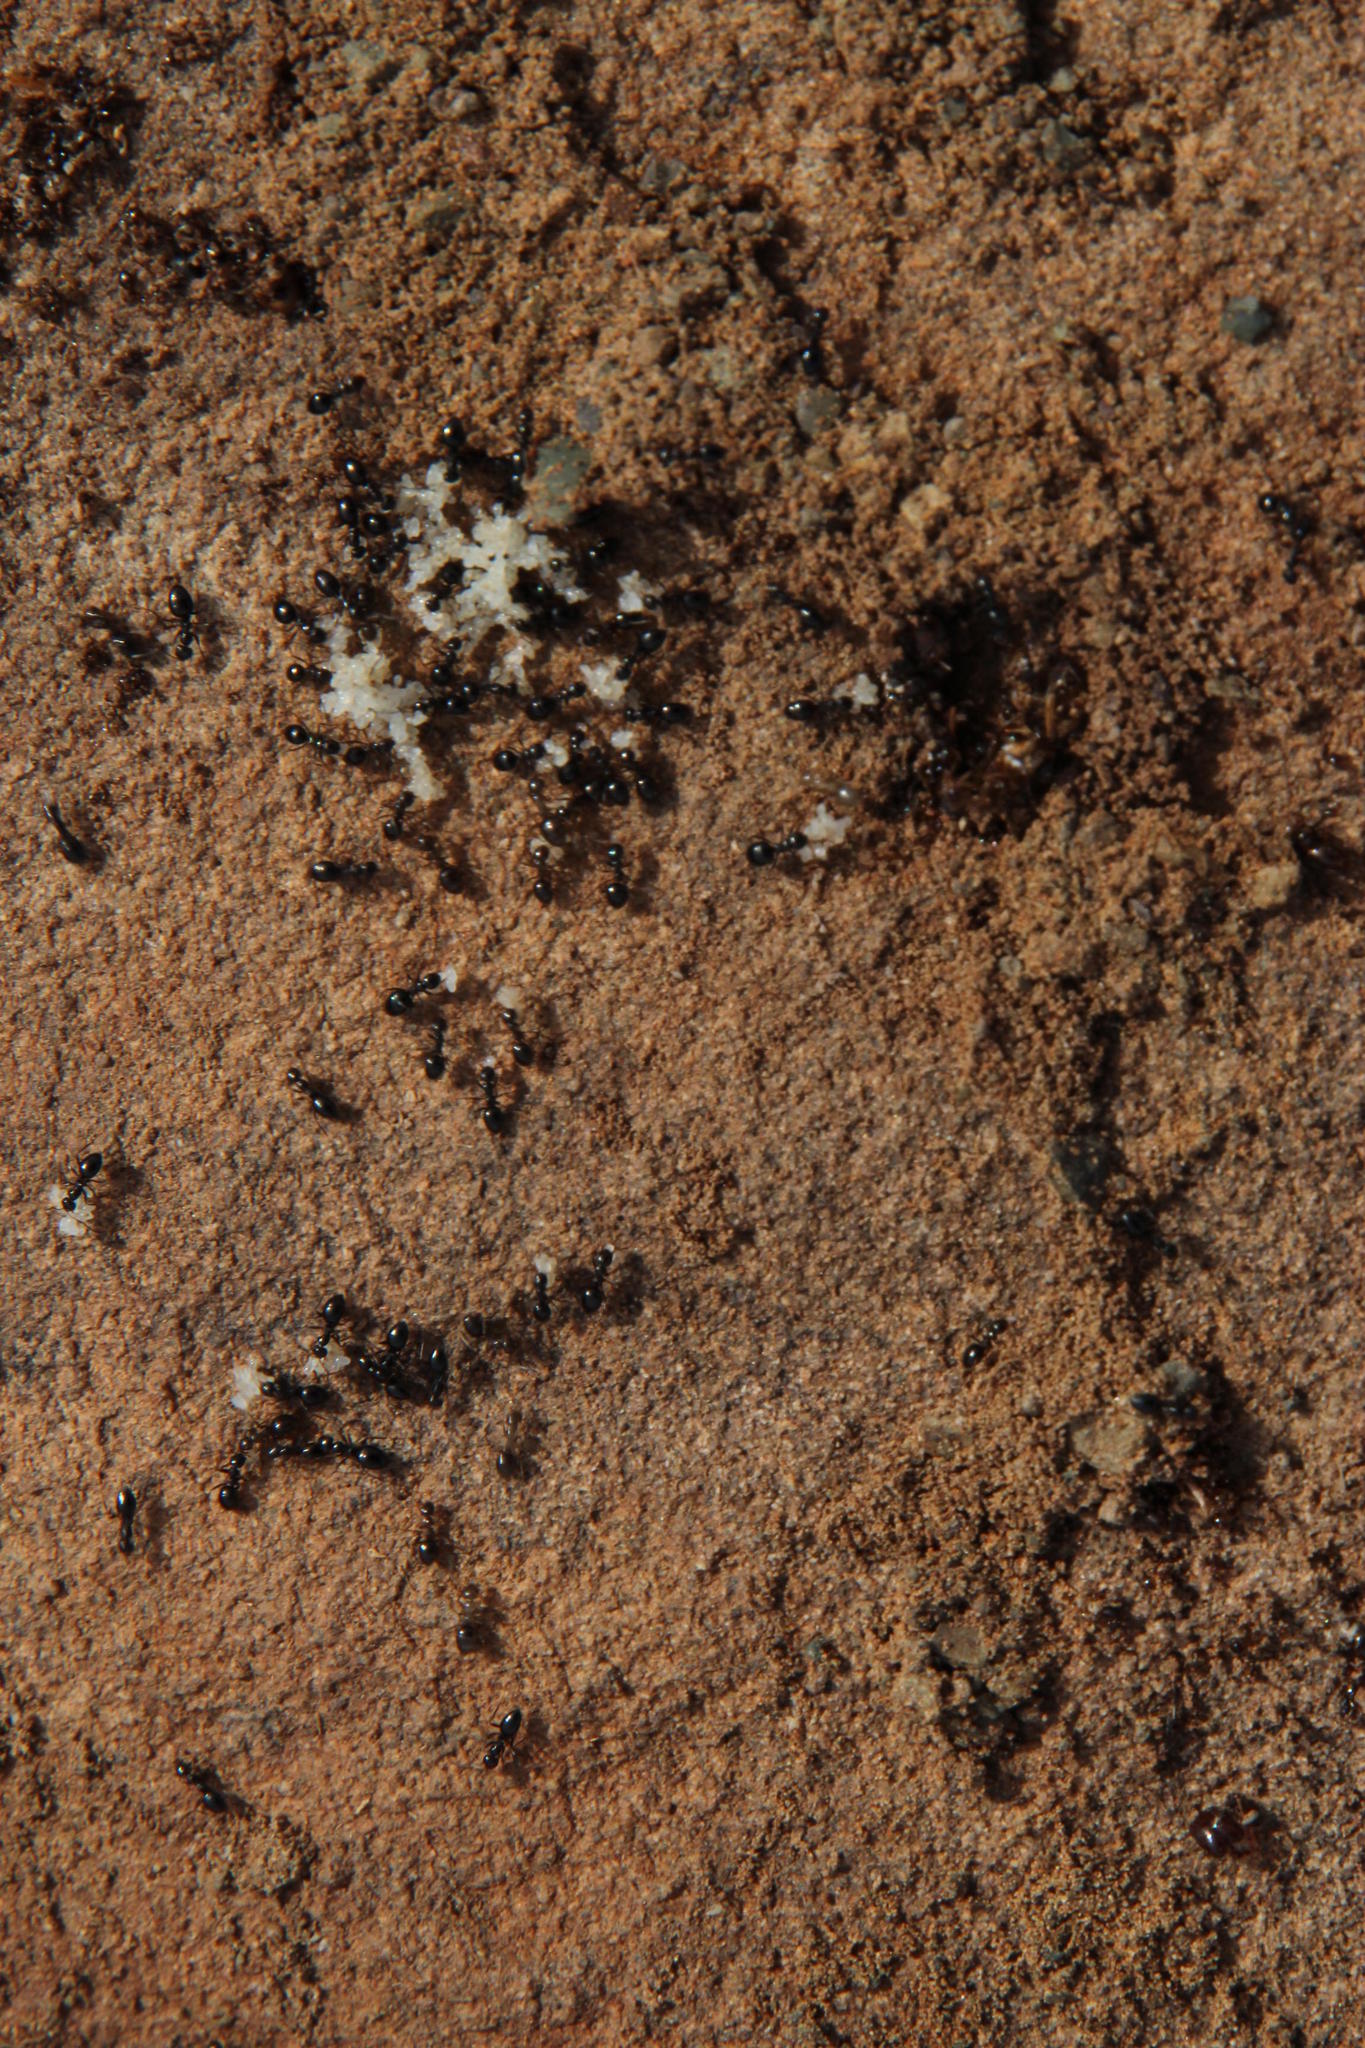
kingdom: Animalia
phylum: Arthropoda
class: Insecta
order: Hymenoptera
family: Formicidae
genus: Lepisiota
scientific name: Lepisiota capensis
